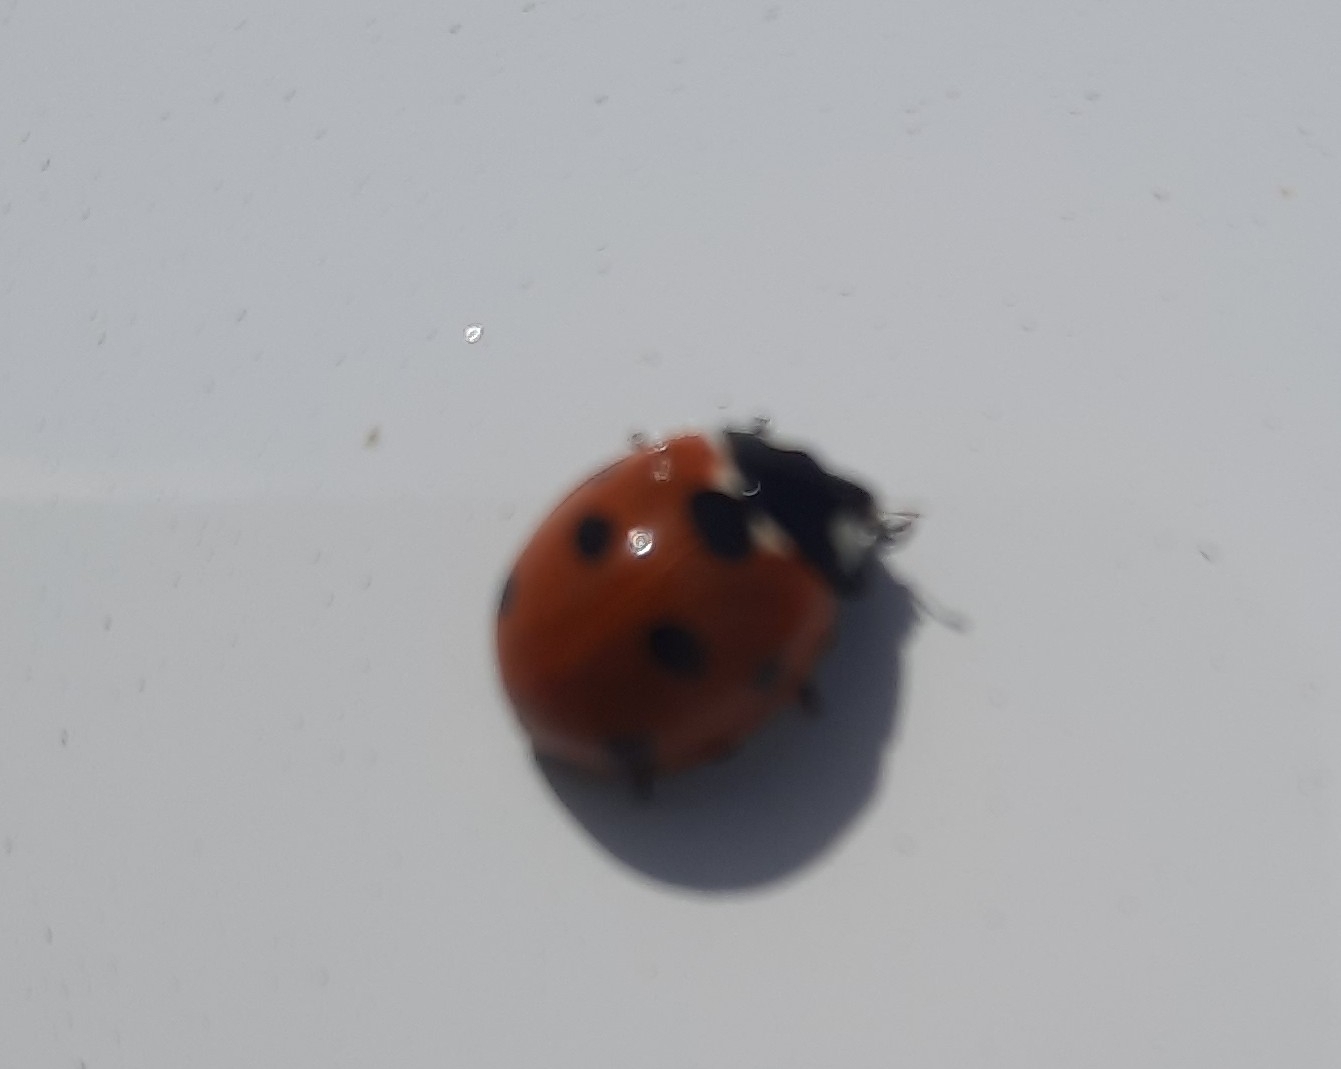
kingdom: Animalia
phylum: Arthropoda
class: Insecta
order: Coleoptera
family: Coccinellidae
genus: Coccinella
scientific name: Coccinella septempunctata
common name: Sevenspotted lady beetle
